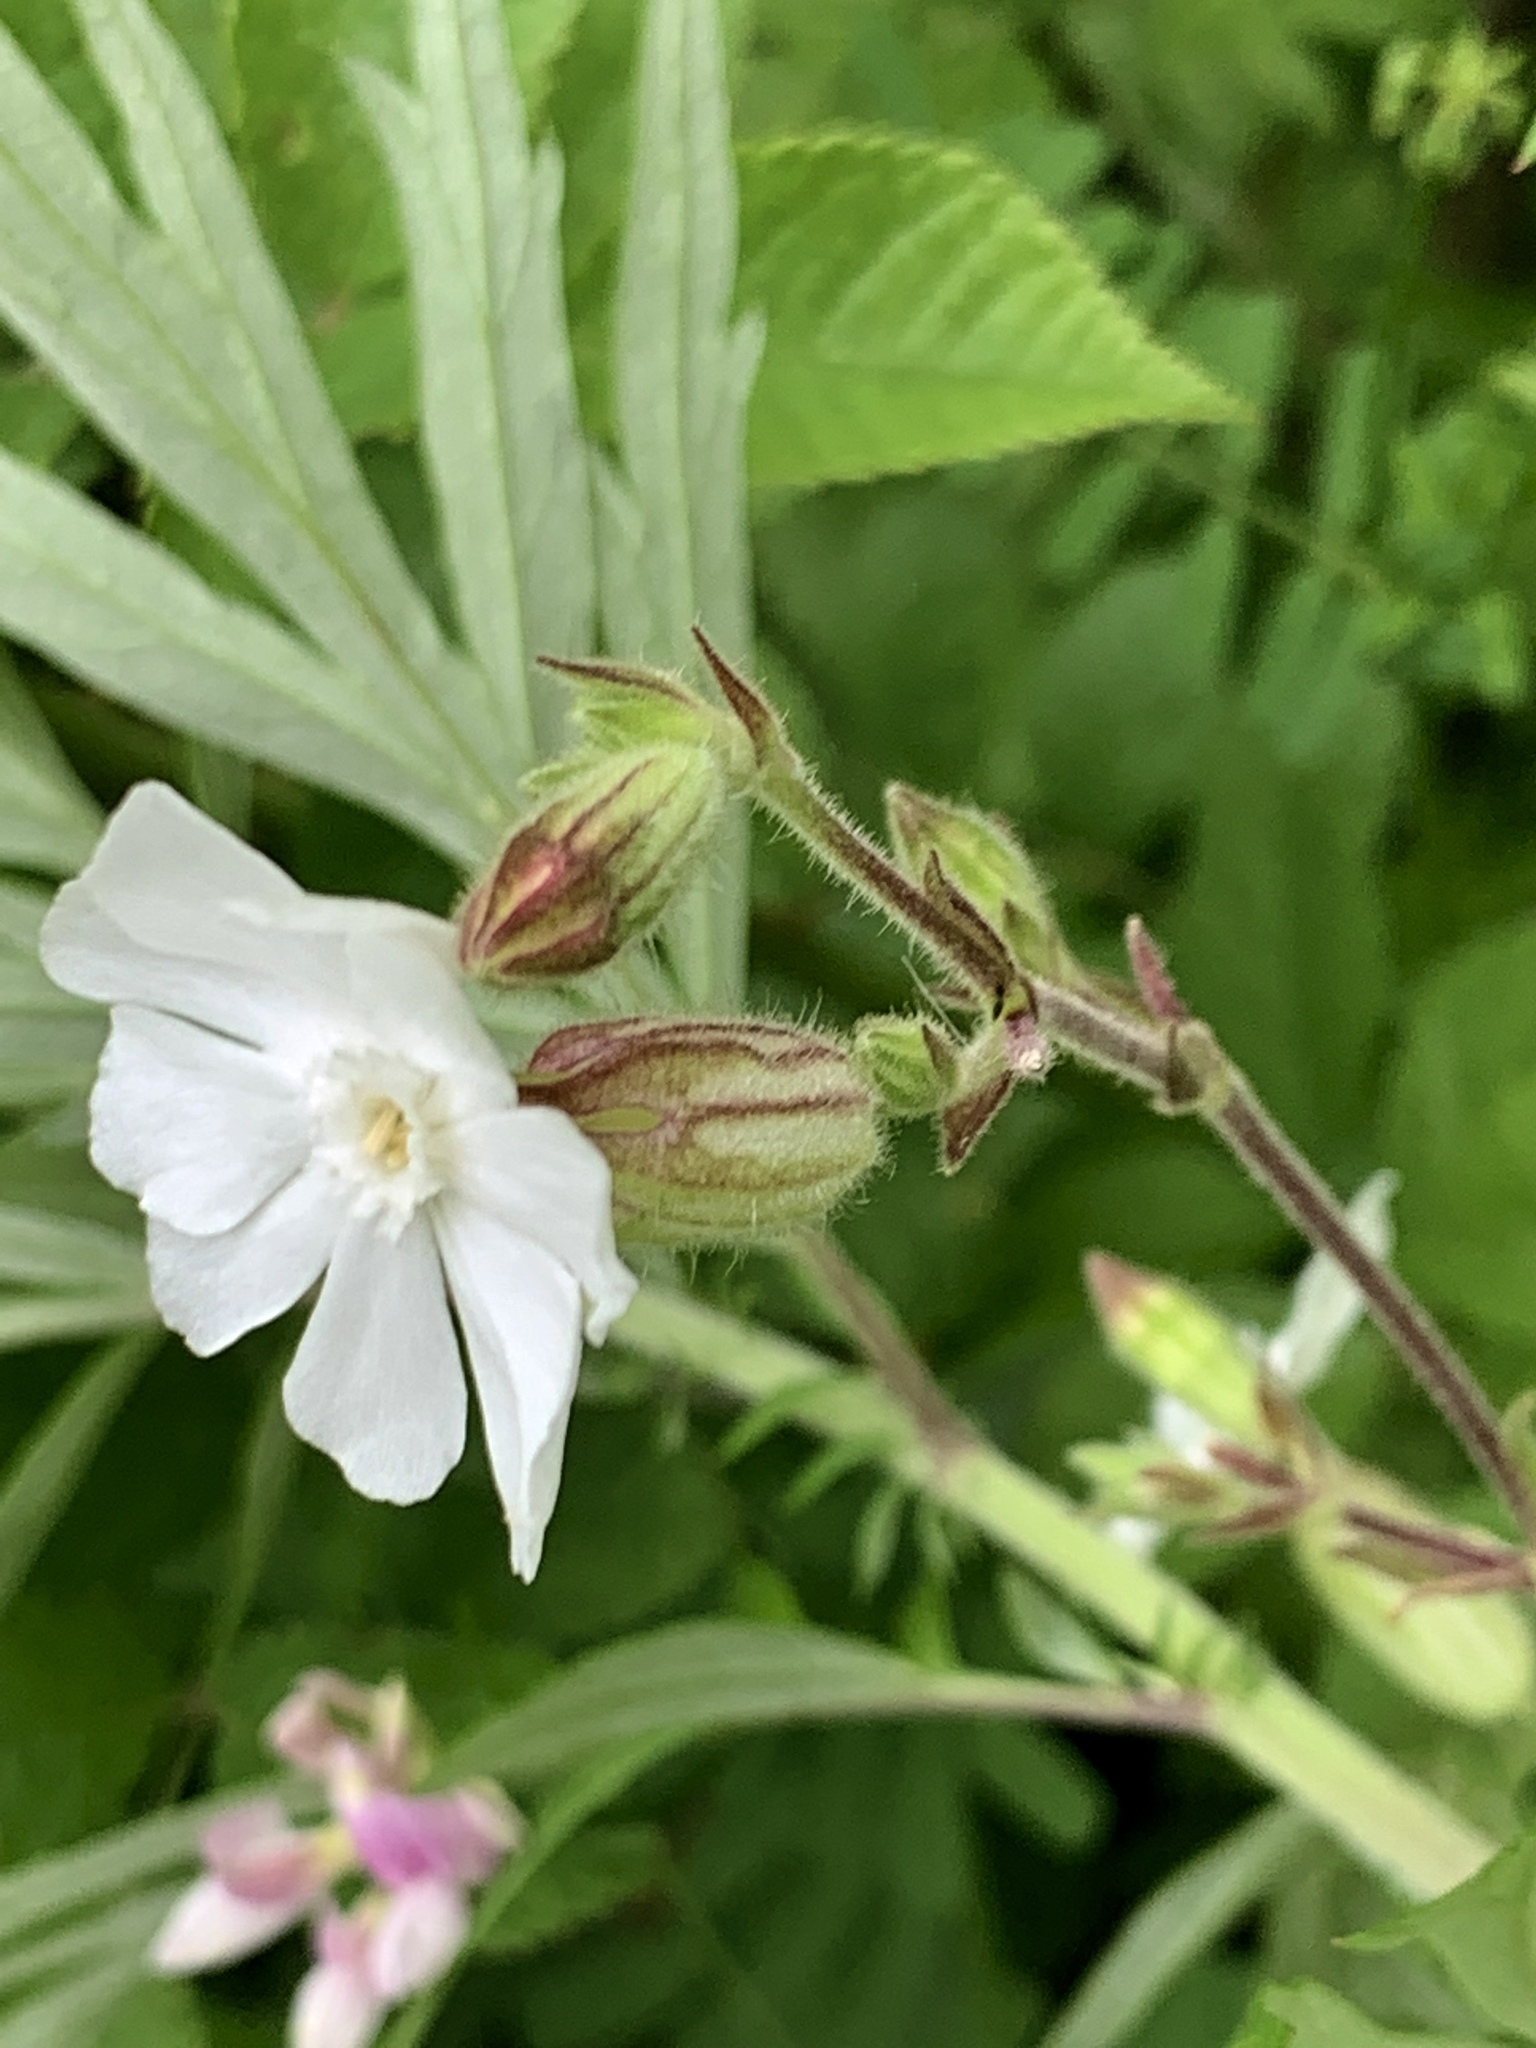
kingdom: Plantae
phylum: Tracheophyta
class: Magnoliopsida
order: Caryophyllales
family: Caryophyllaceae
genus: Silene
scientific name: Silene latifolia
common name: White campion
